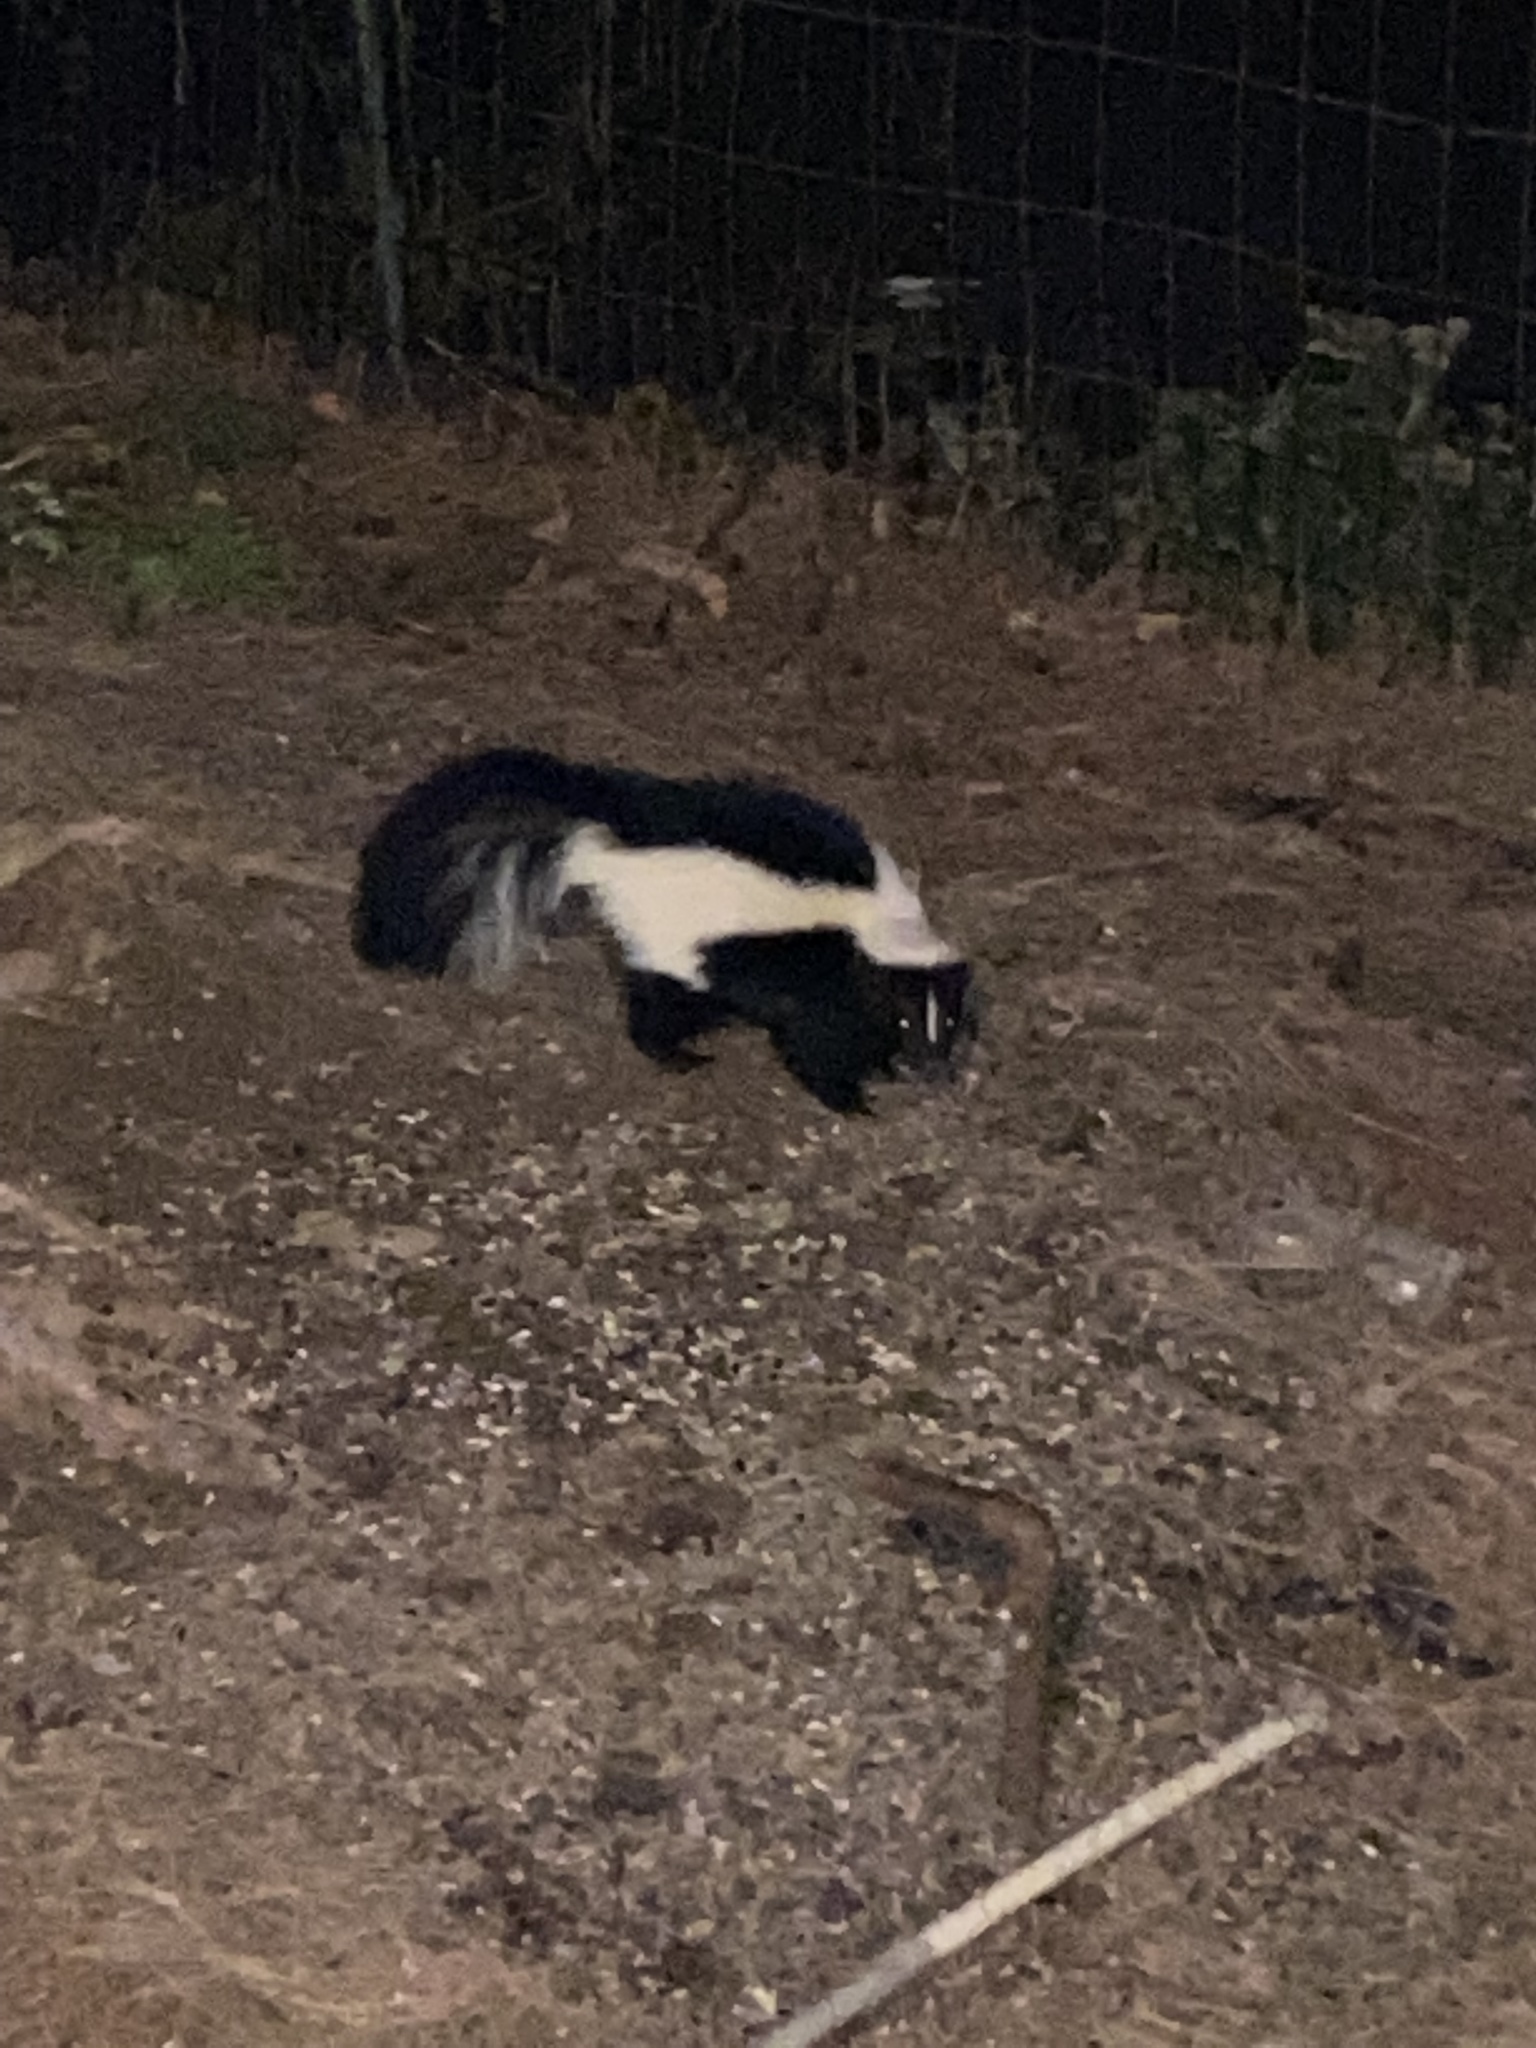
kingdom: Animalia
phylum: Chordata
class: Mammalia
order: Carnivora
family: Mephitidae
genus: Mephitis
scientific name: Mephitis mephitis
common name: Striped skunk
